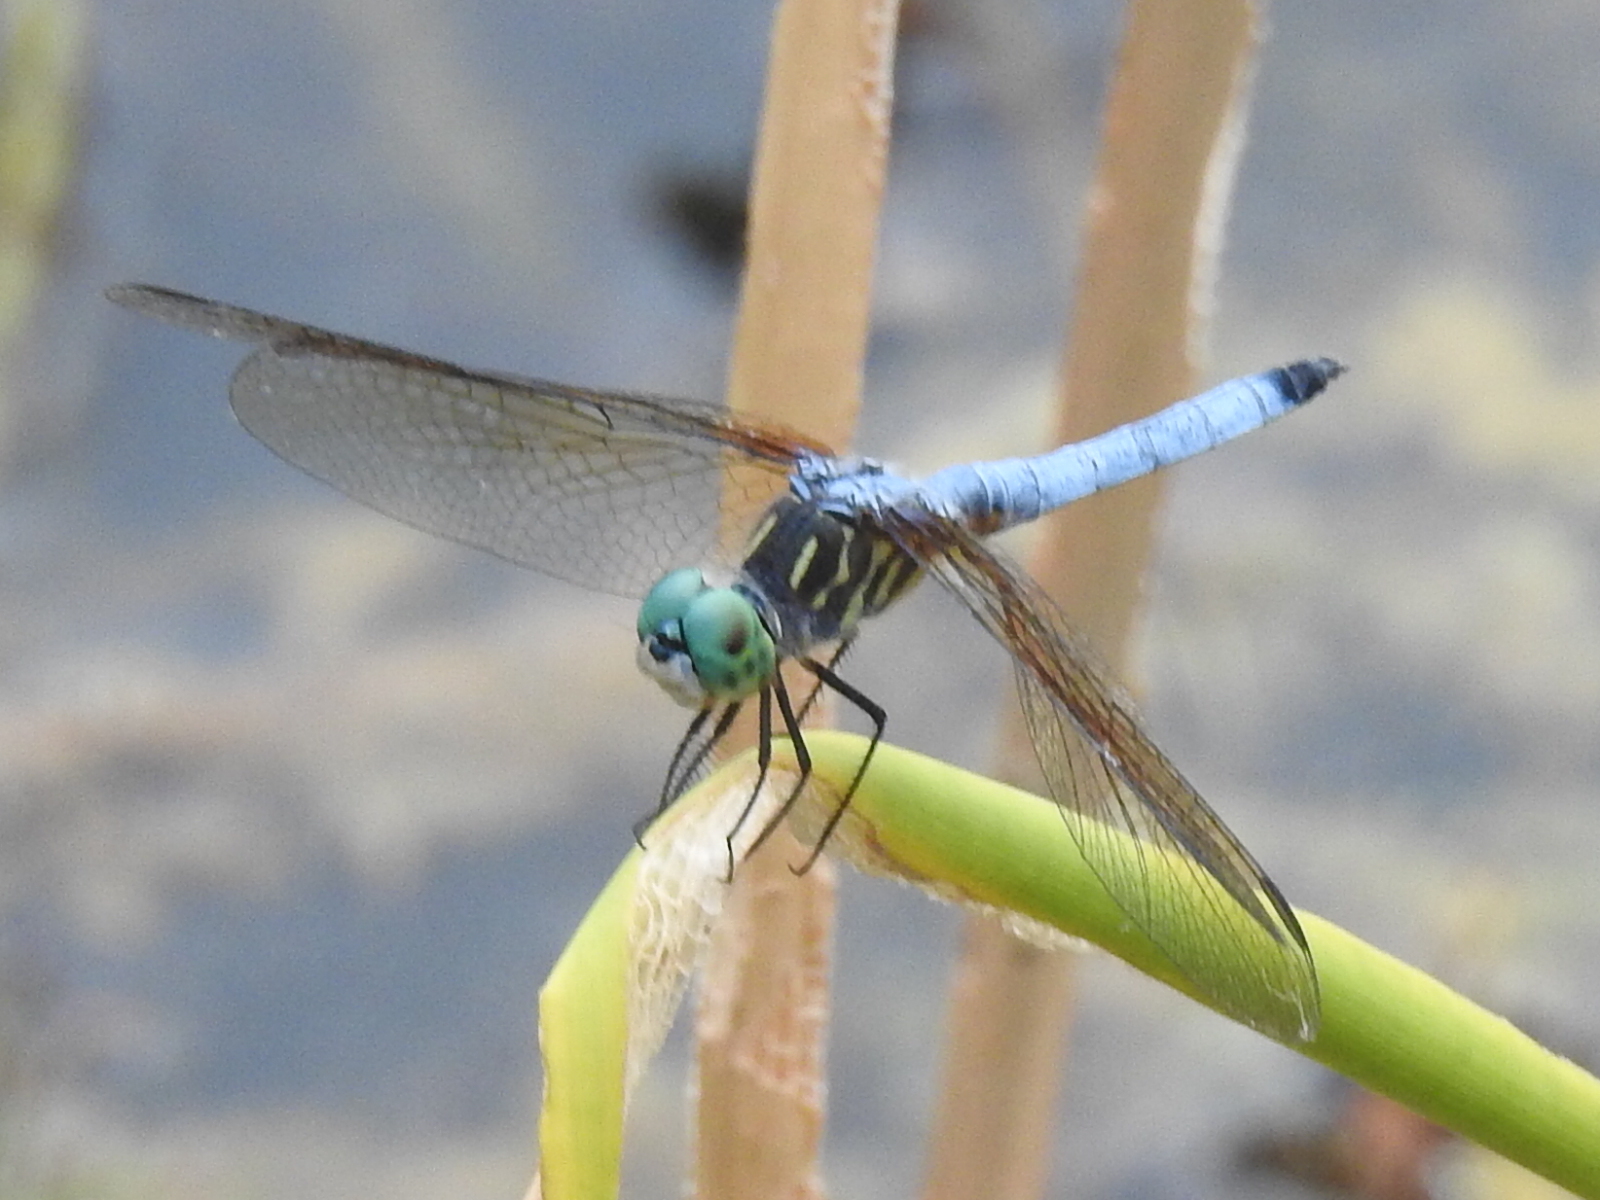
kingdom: Animalia
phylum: Arthropoda
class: Insecta
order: Odonata
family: Libellulidae
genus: Pachydiplax
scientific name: Pachydiplax longipennis
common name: Blue dasher
